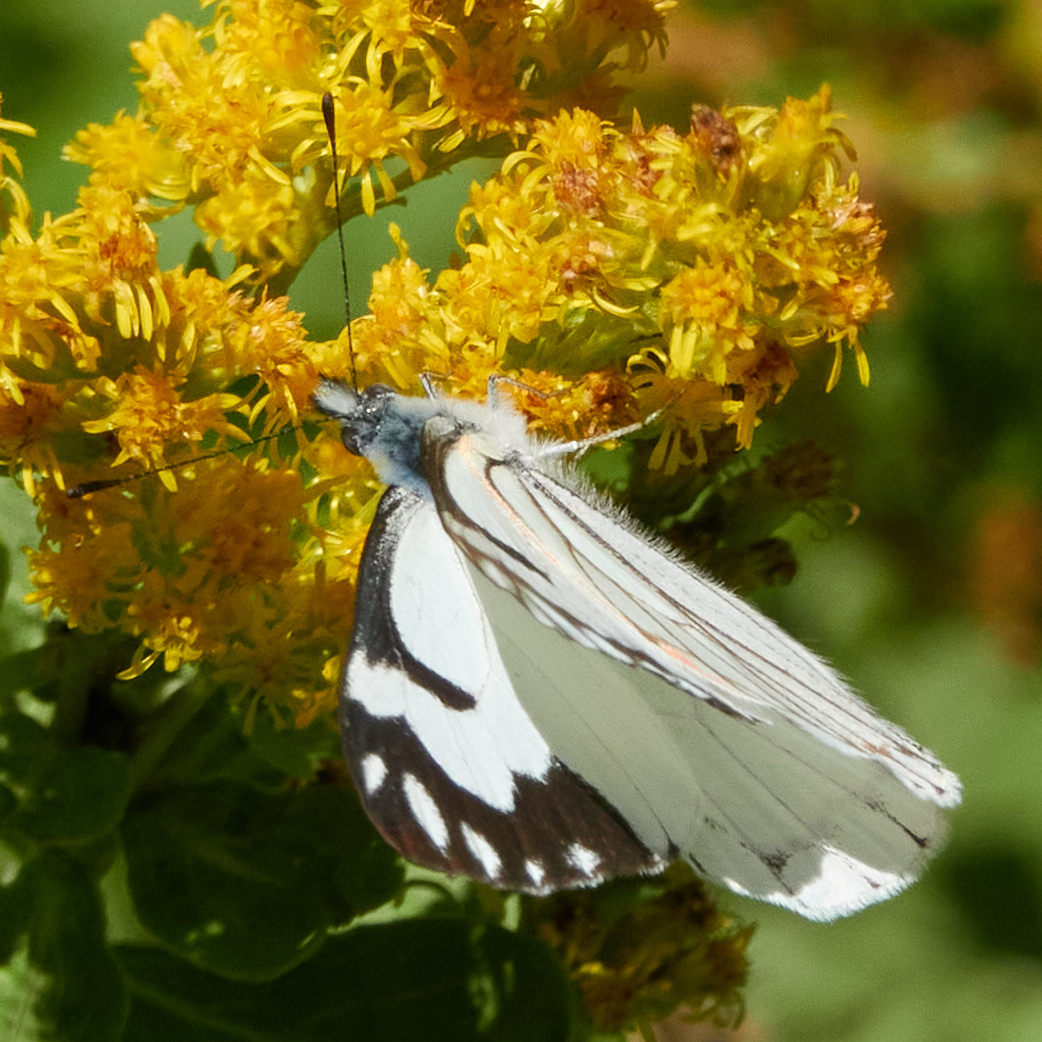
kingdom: Animalia
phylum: Arthropoda
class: Insecta
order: Lepidoptera
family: Pieridae
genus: Neophasia
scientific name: Neophasia menapia
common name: Pine white
